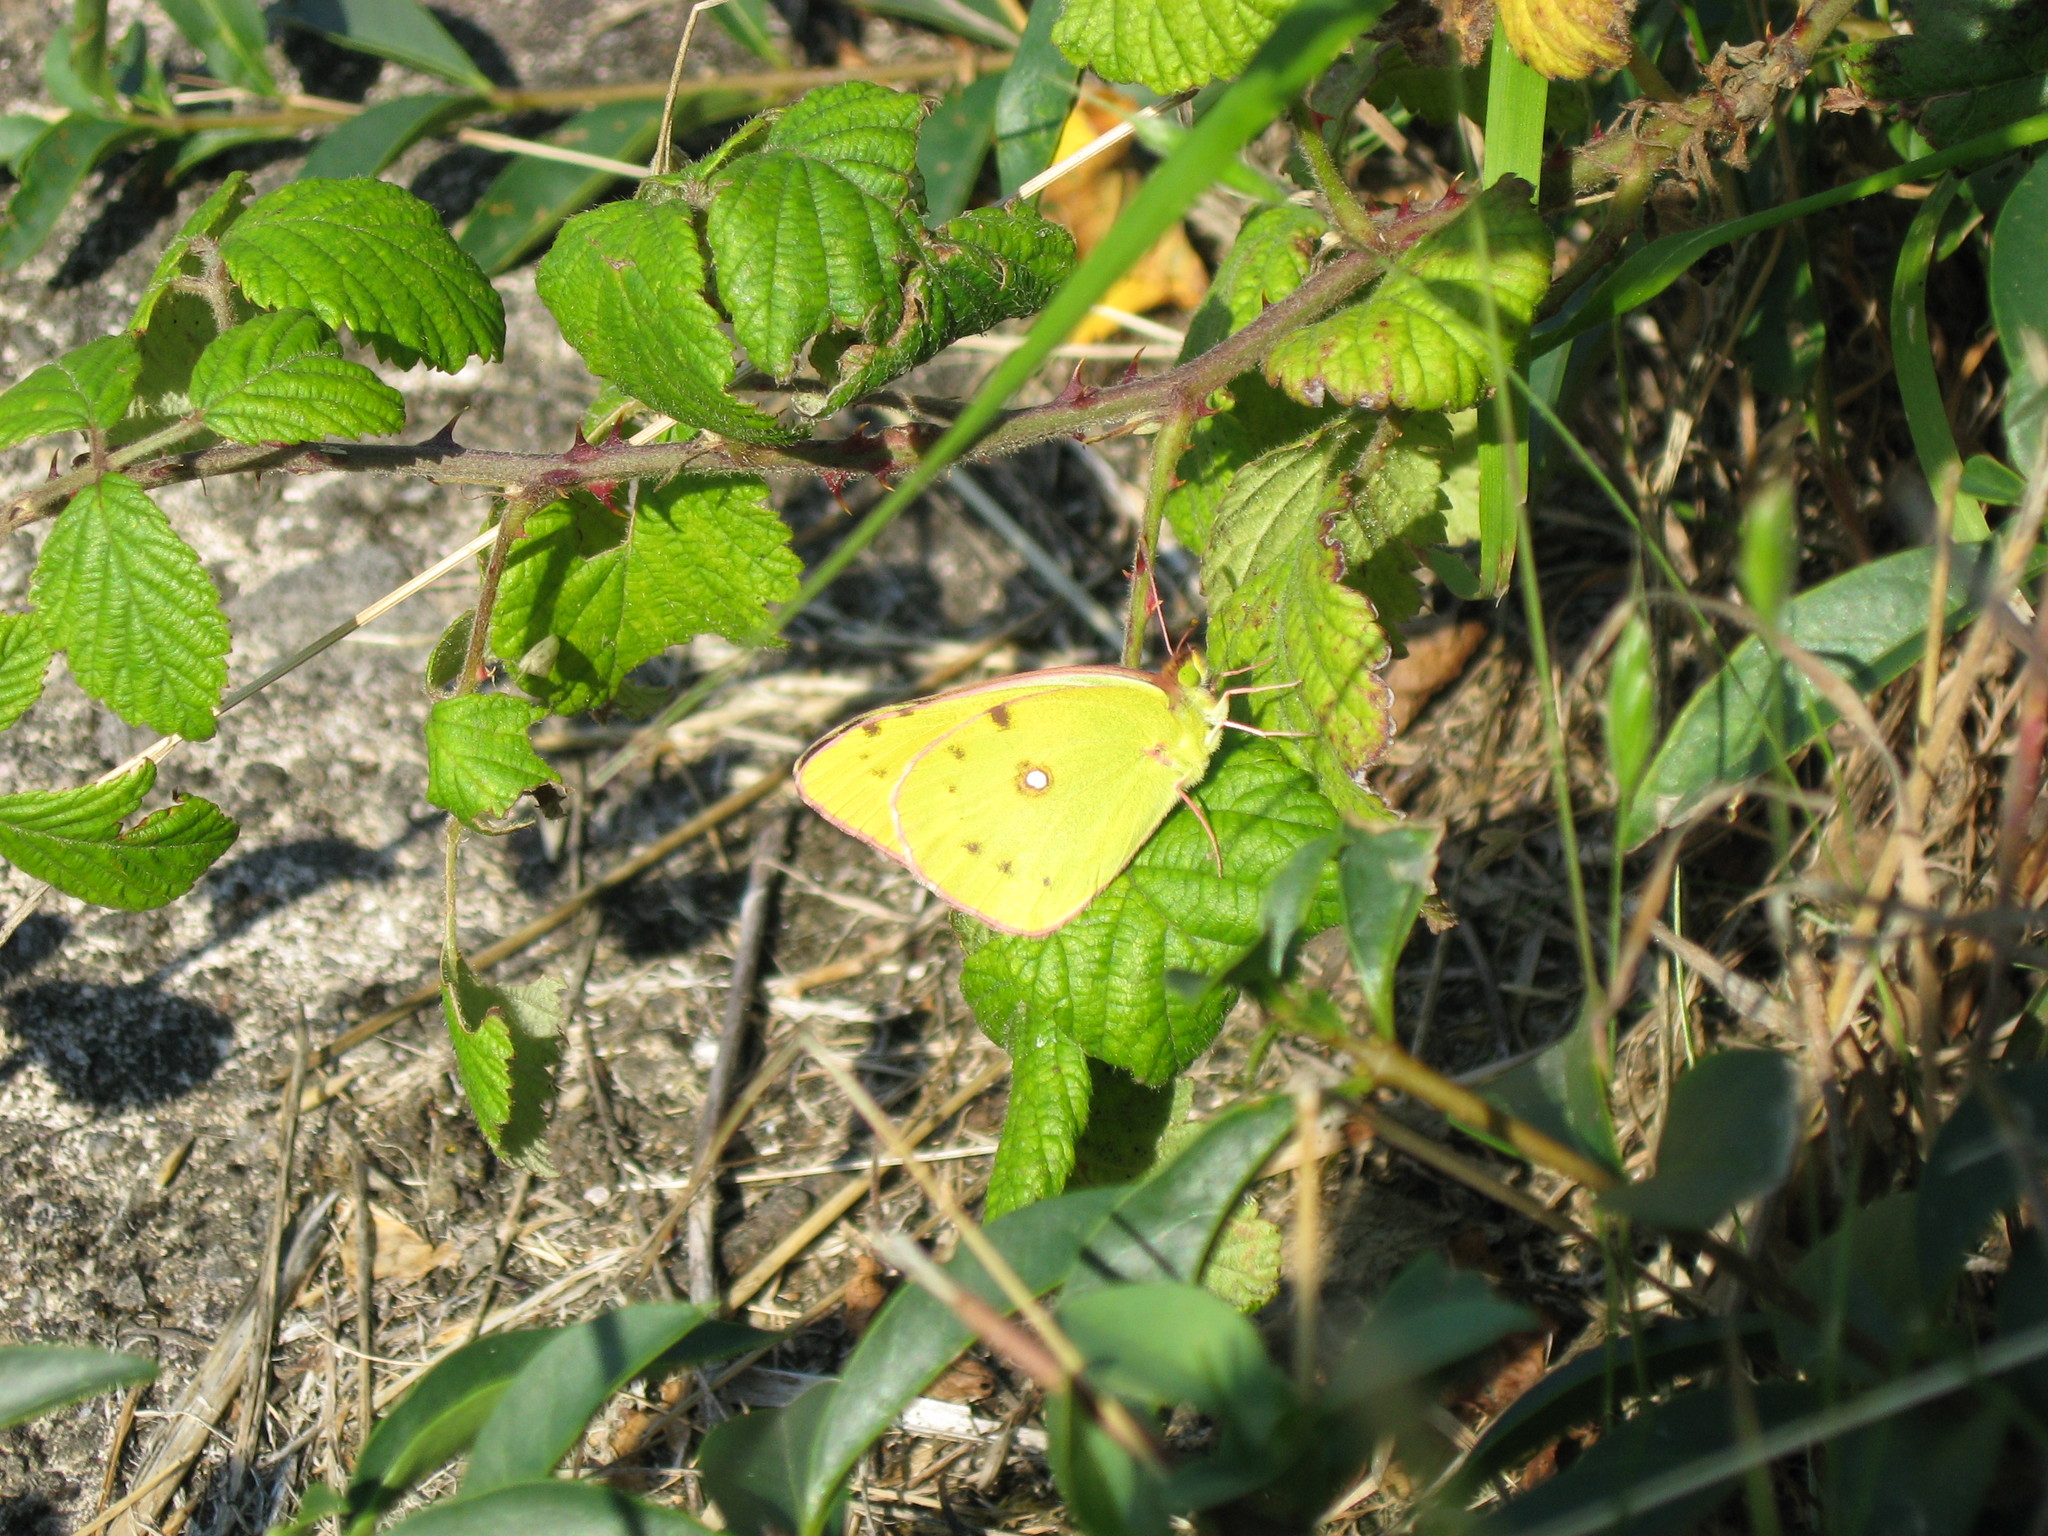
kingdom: Animalia
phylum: Arthropoda
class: Insecta
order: Lepidoptera
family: Pieridae
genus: Colias
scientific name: Colias croceus
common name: Clouded yellow
